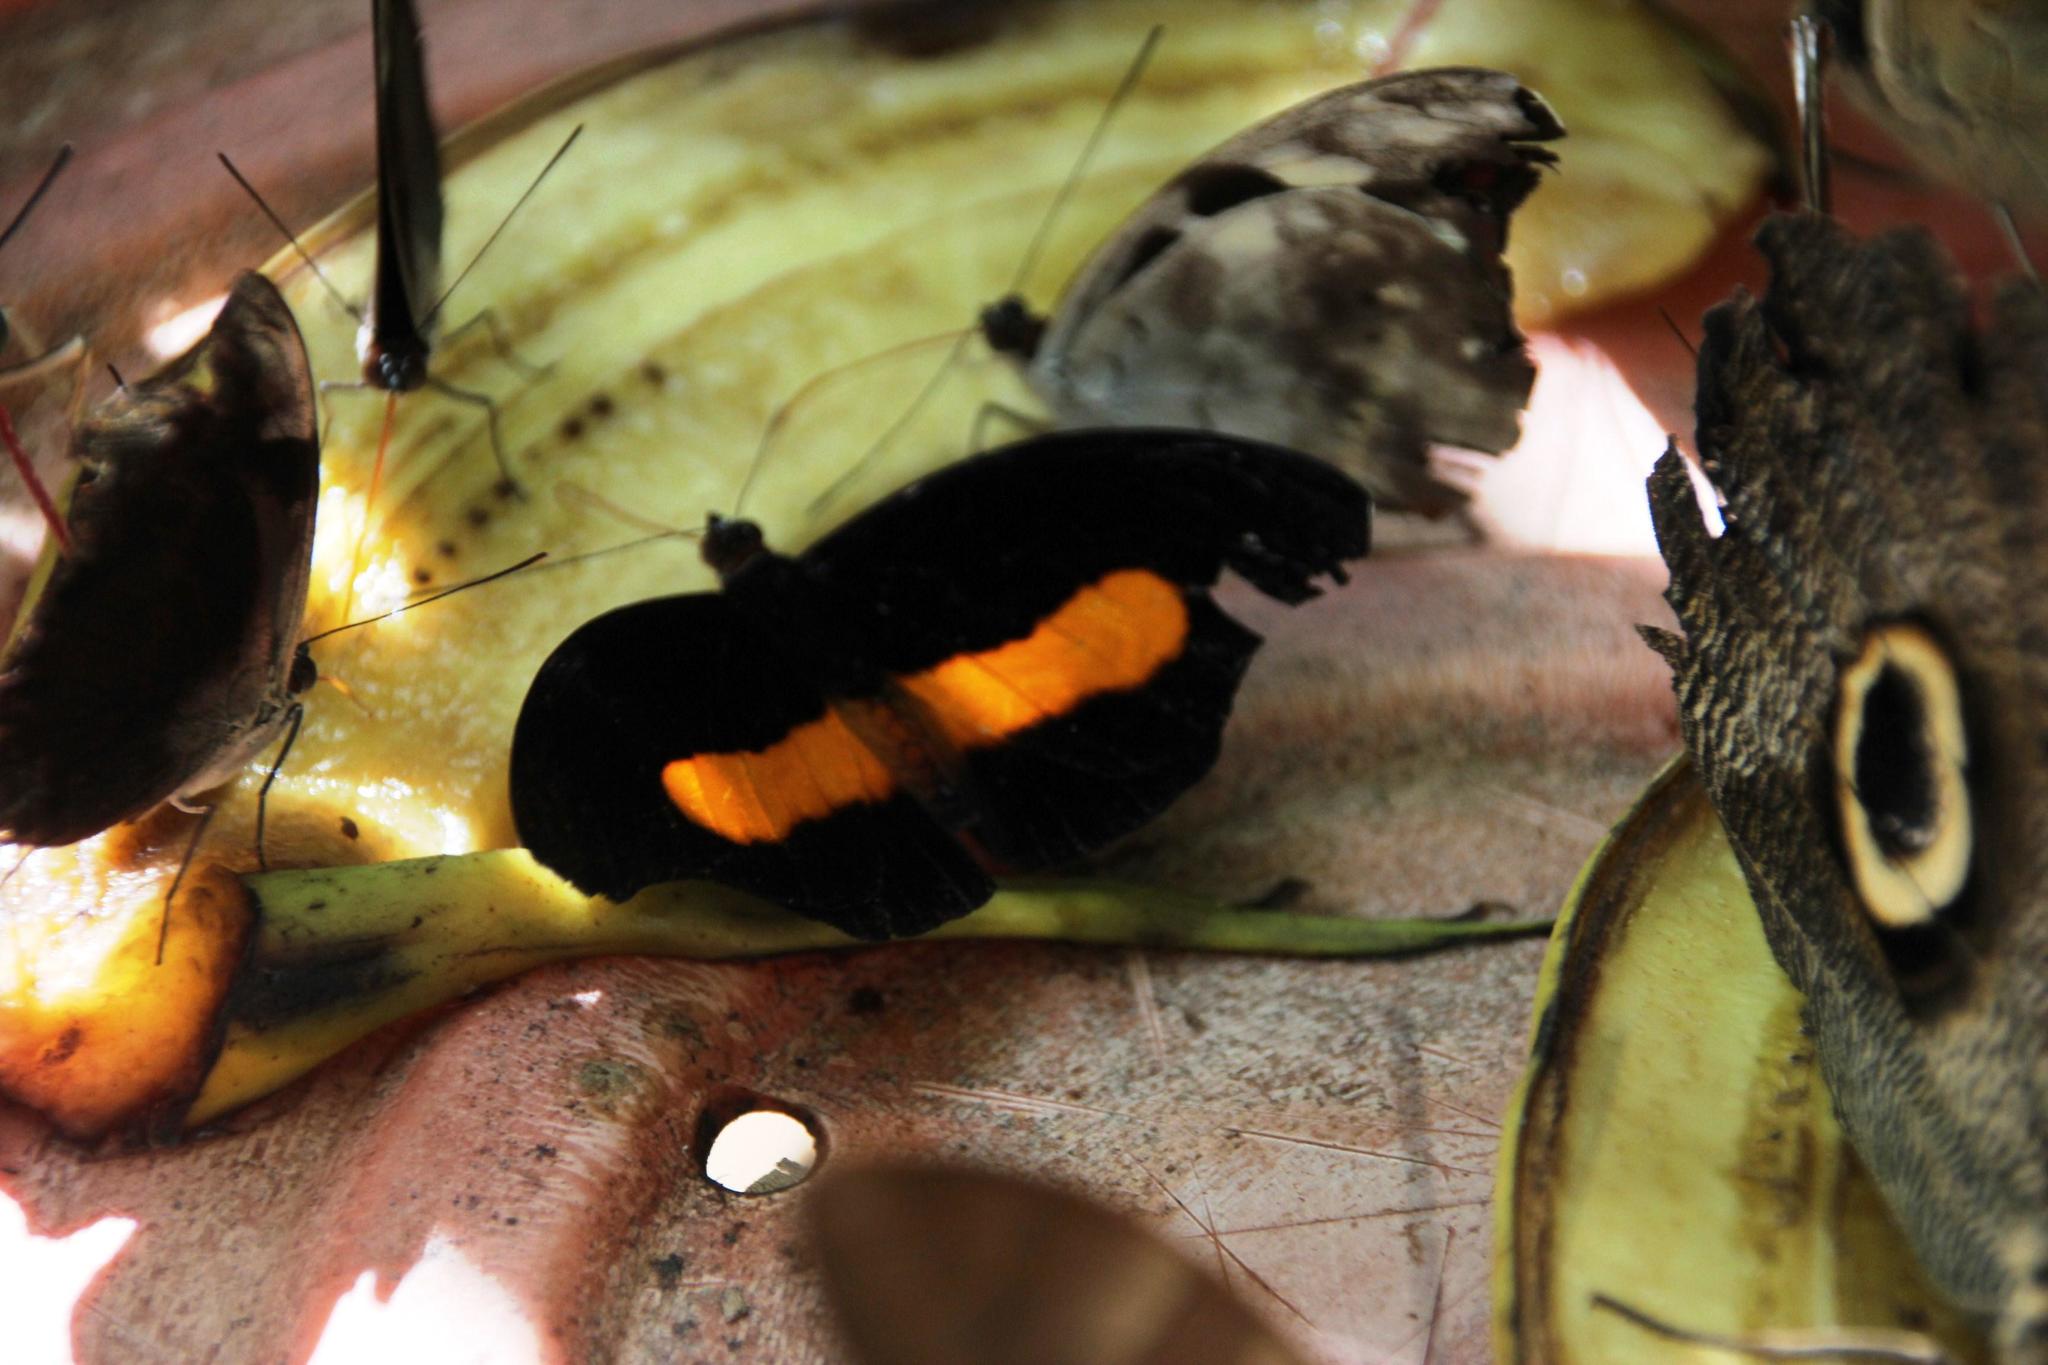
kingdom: Animalia
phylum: Arthropoda
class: Insecta
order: Lepidoptera
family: Nymphalidae
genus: Catonephele
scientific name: Catonephele acontius
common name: Unspotted firewing
